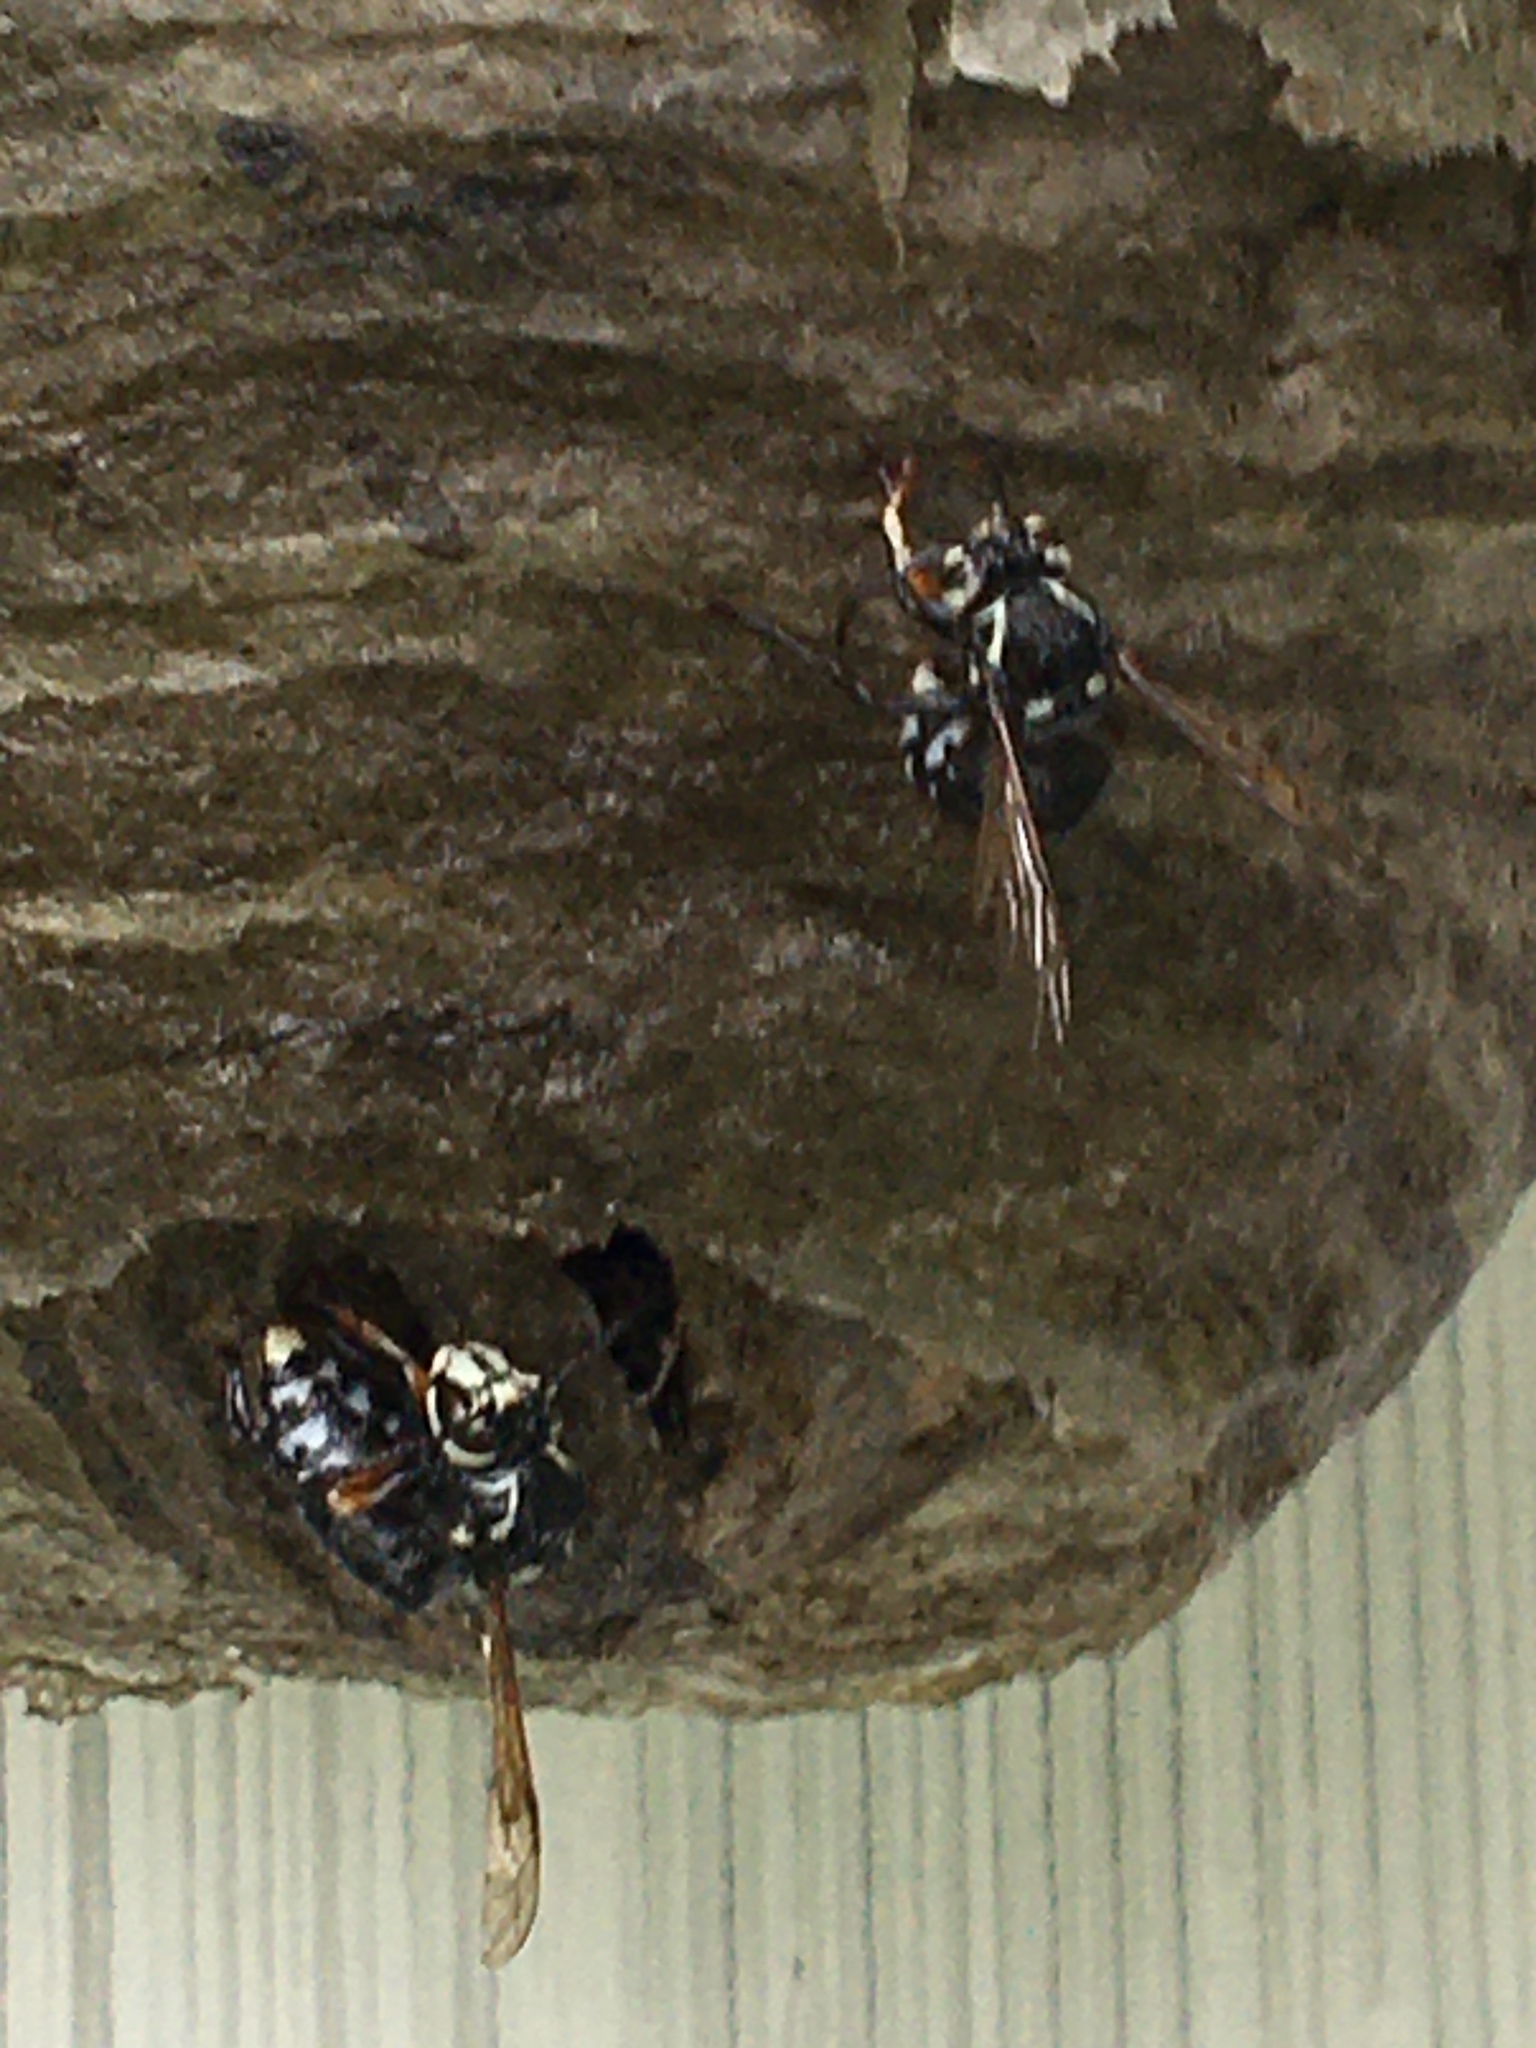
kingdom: Animalia
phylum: Arthropoda
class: Insecta
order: Hymenoptera
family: Vespidae
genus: Dolichovespula
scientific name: Dolichovespula maculata
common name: Bald-faced hornet
